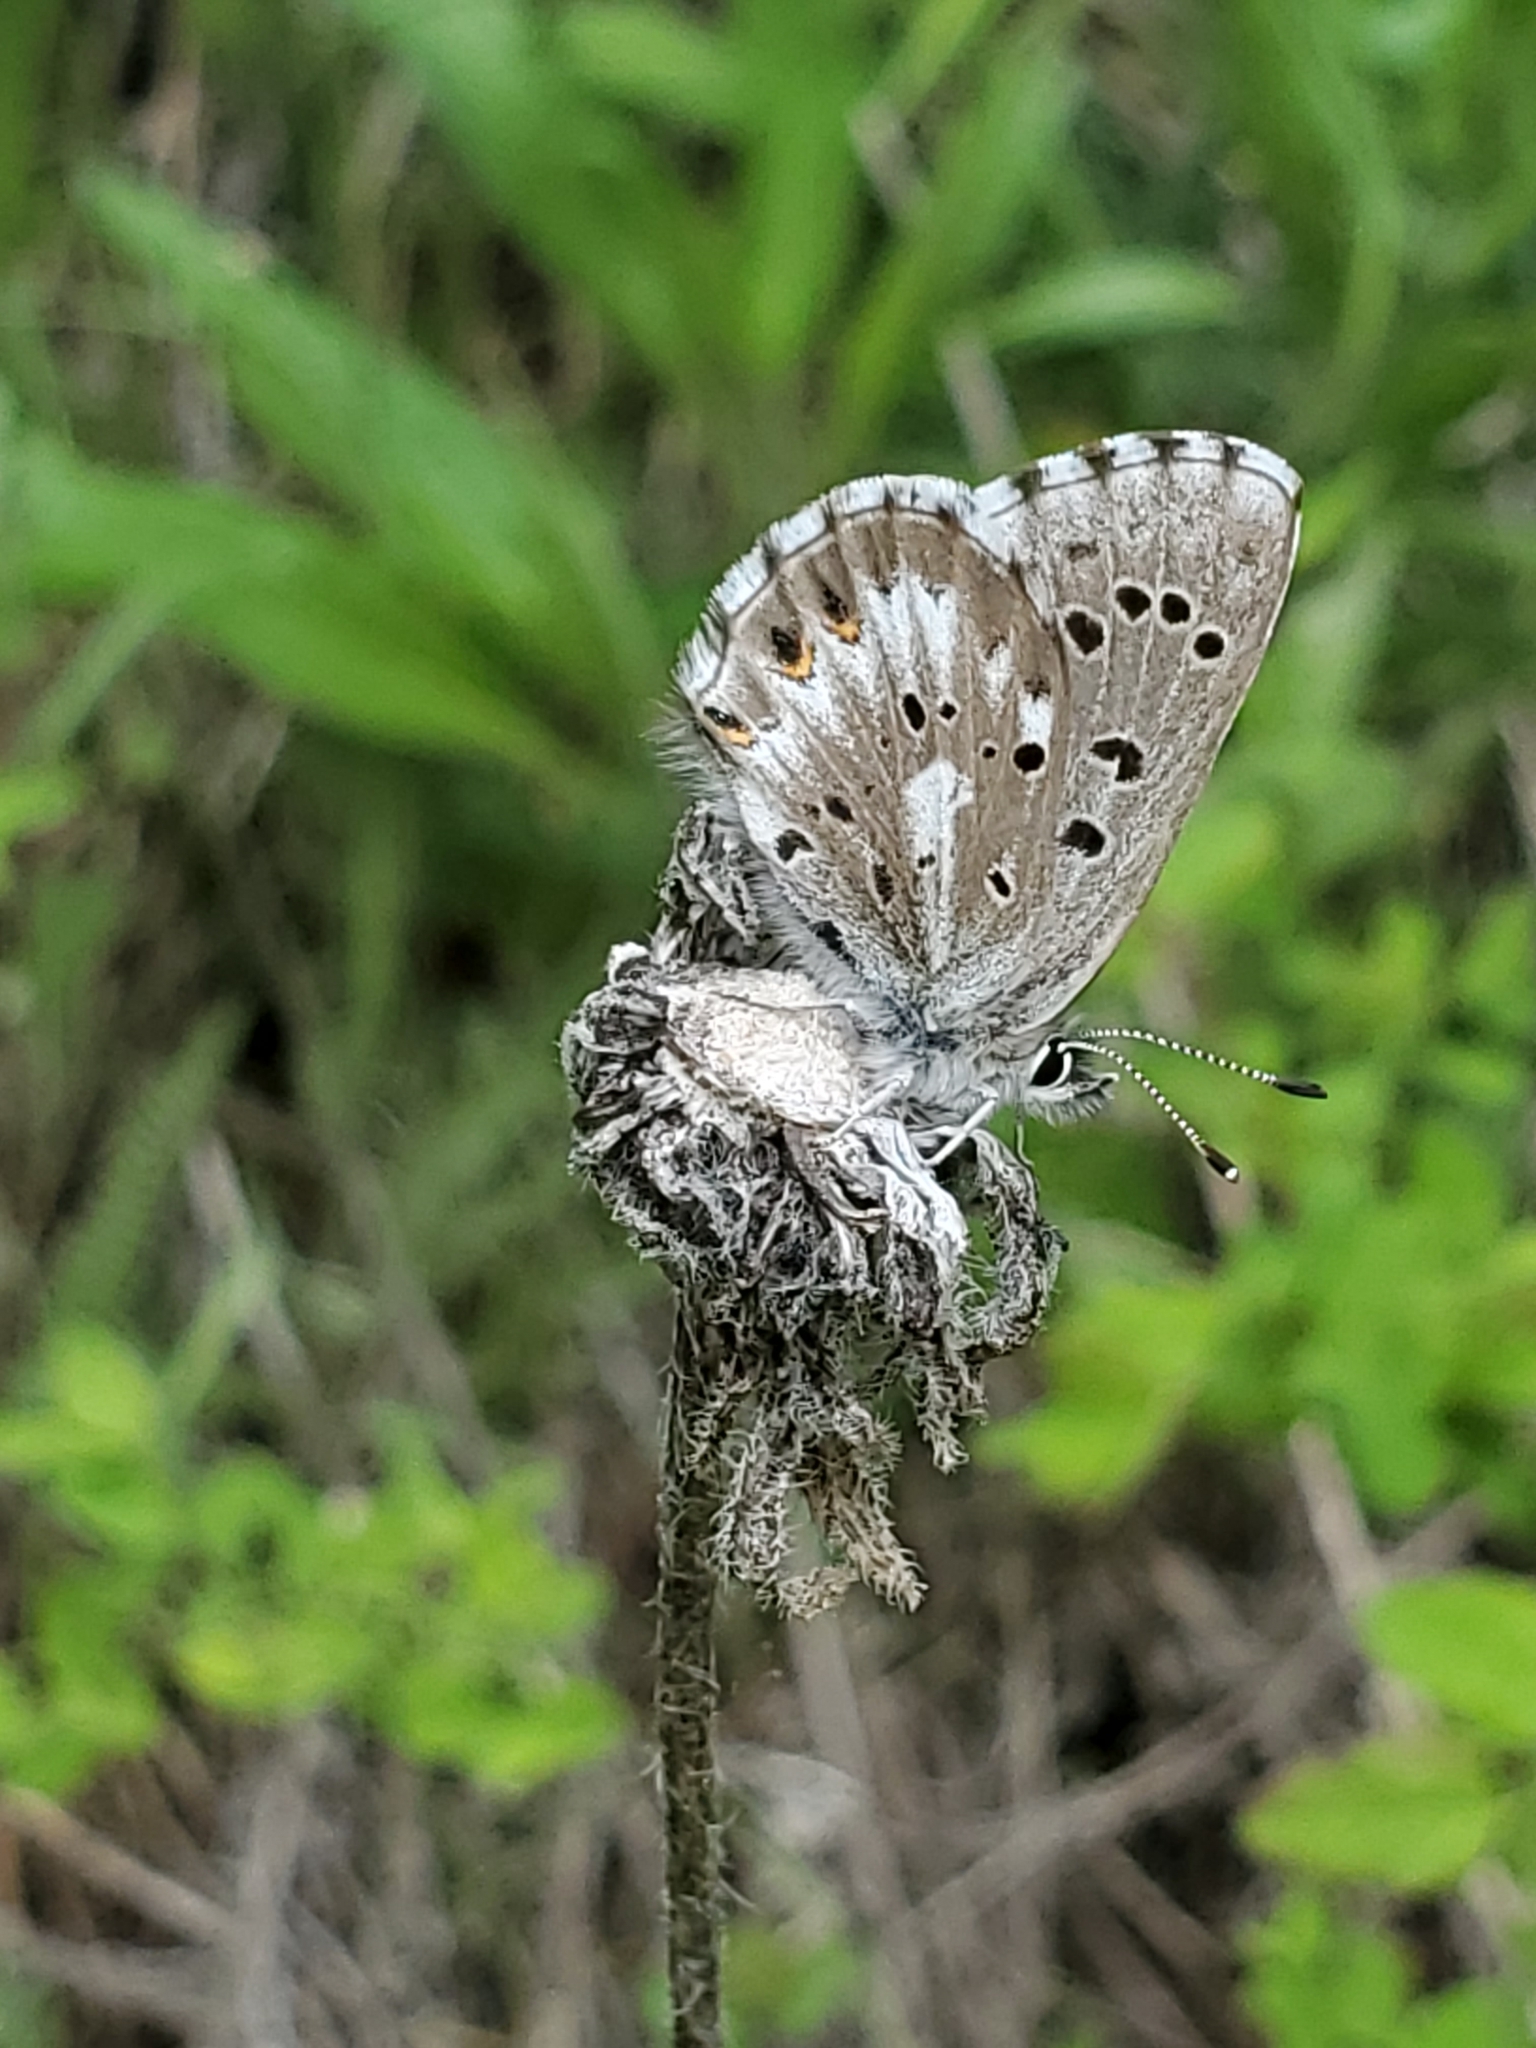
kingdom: Animalia
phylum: Arthropoda
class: Insecta
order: Lepidoptera
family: Lycaenidae
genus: Glaucopsyche
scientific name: Glaucopsyche piasus
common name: Arrowhead blue
